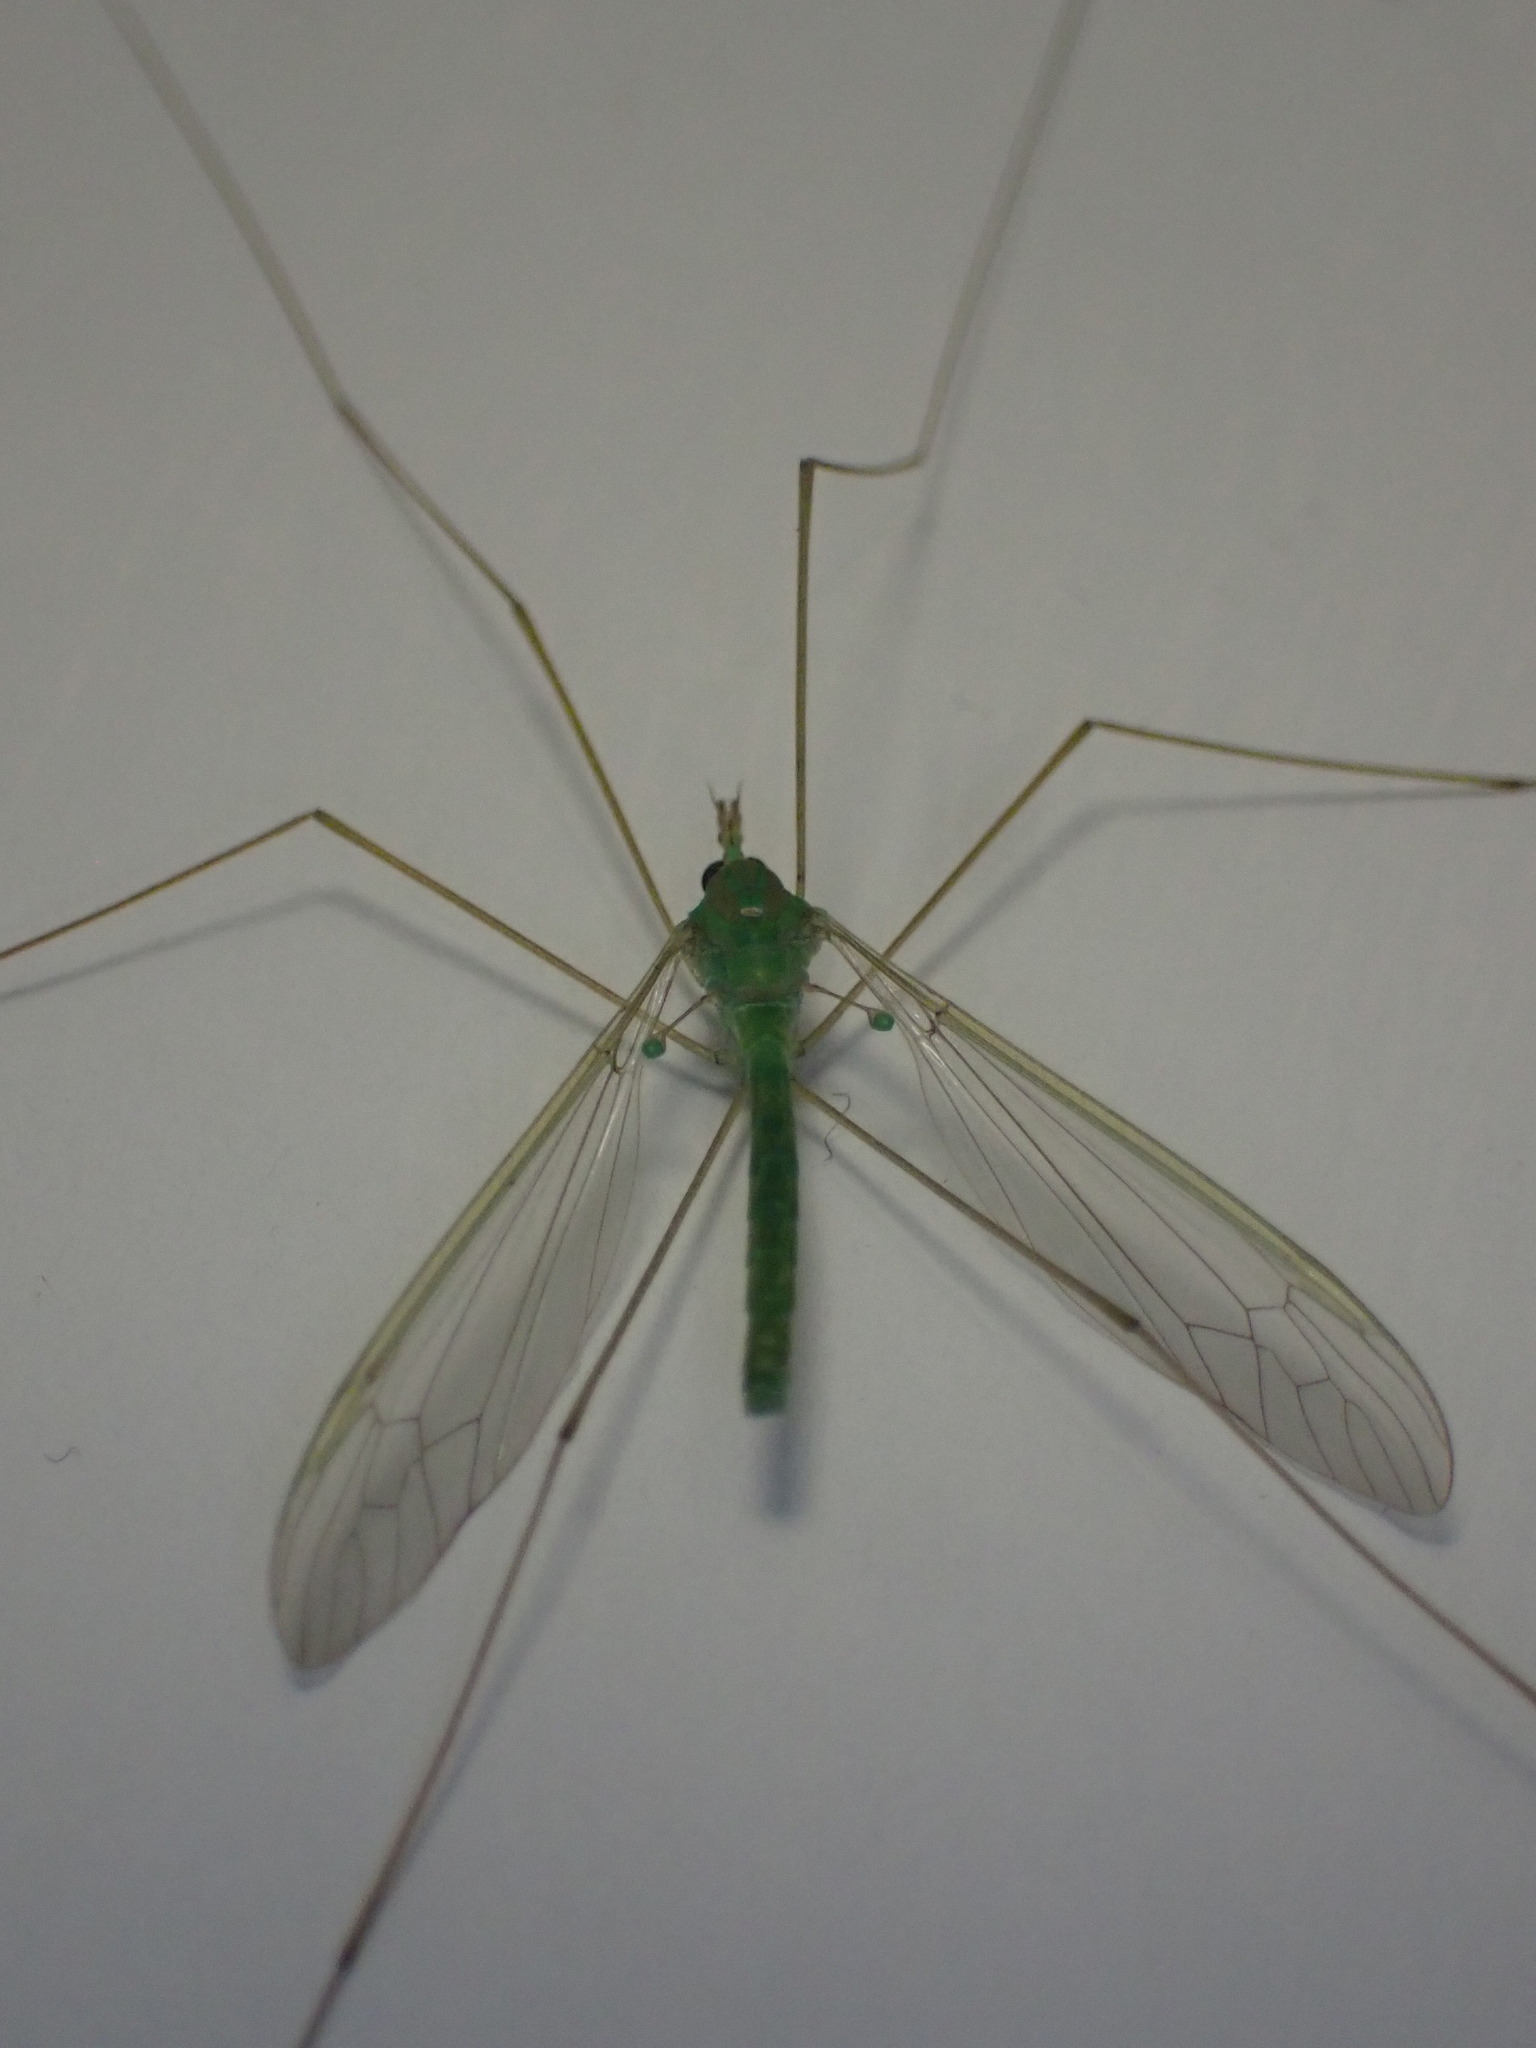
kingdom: Animalia
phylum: Arthropoda
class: Insecta
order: Diptera
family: Tipulidae
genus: Leptotarsus
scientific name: Leptotarsus virescens
